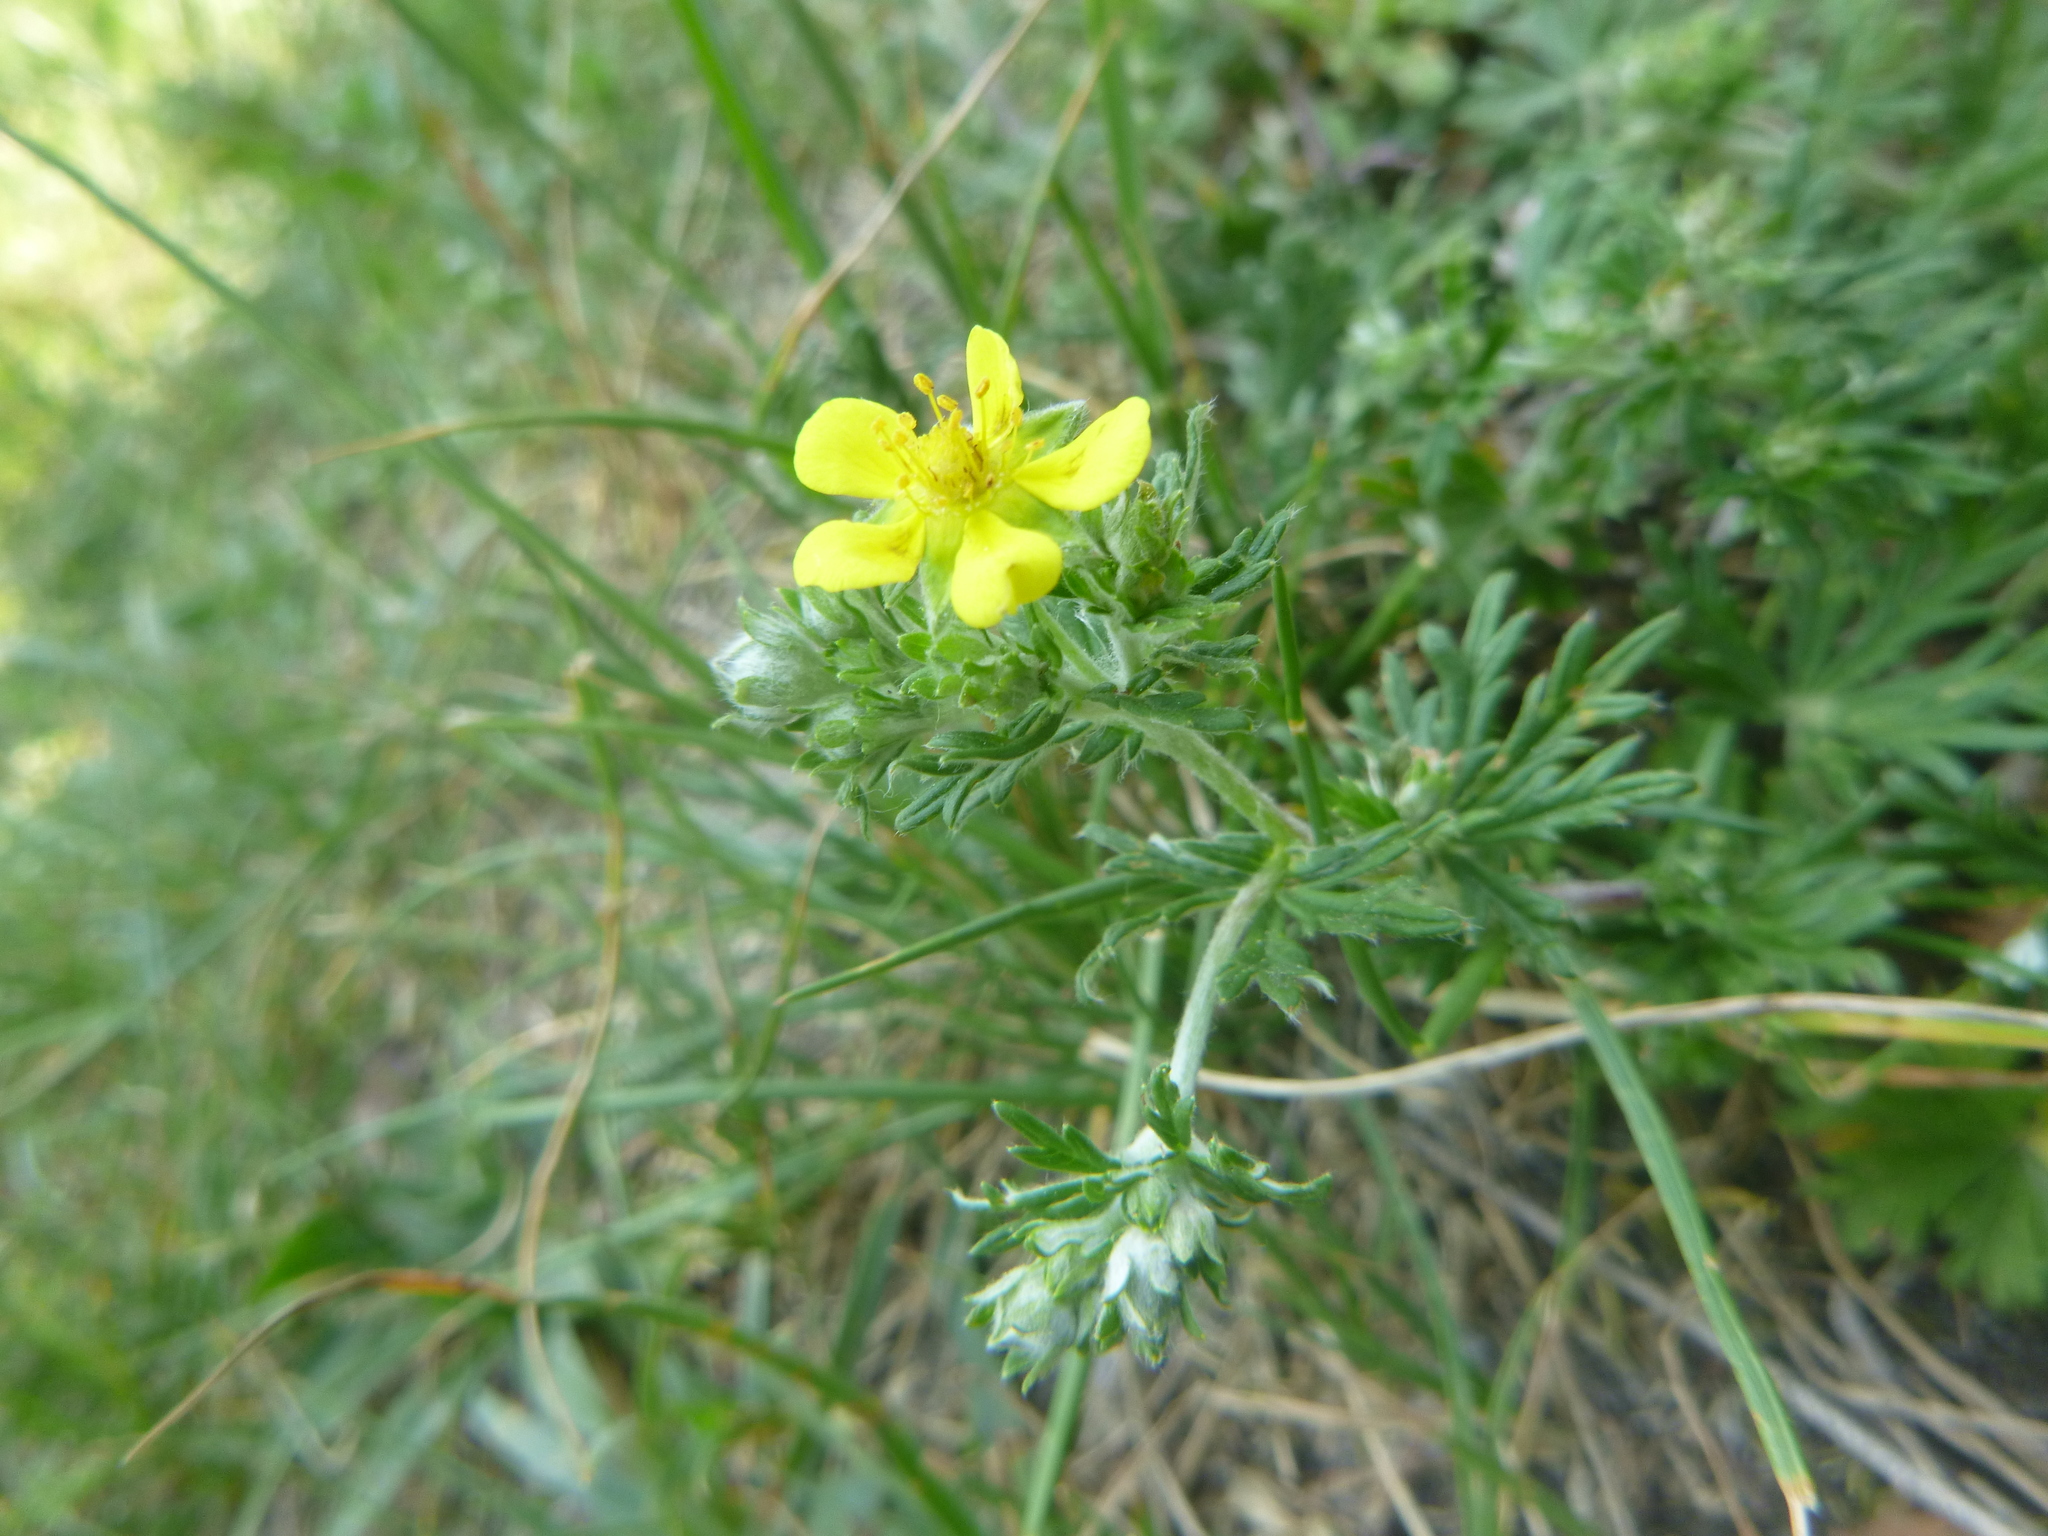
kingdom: Plantae
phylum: Tracheophyta
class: Magnoliopsida
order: Rosales
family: Rosaceae
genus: Potentilla
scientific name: Potentilla argentea
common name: Hoary cinquefoil
